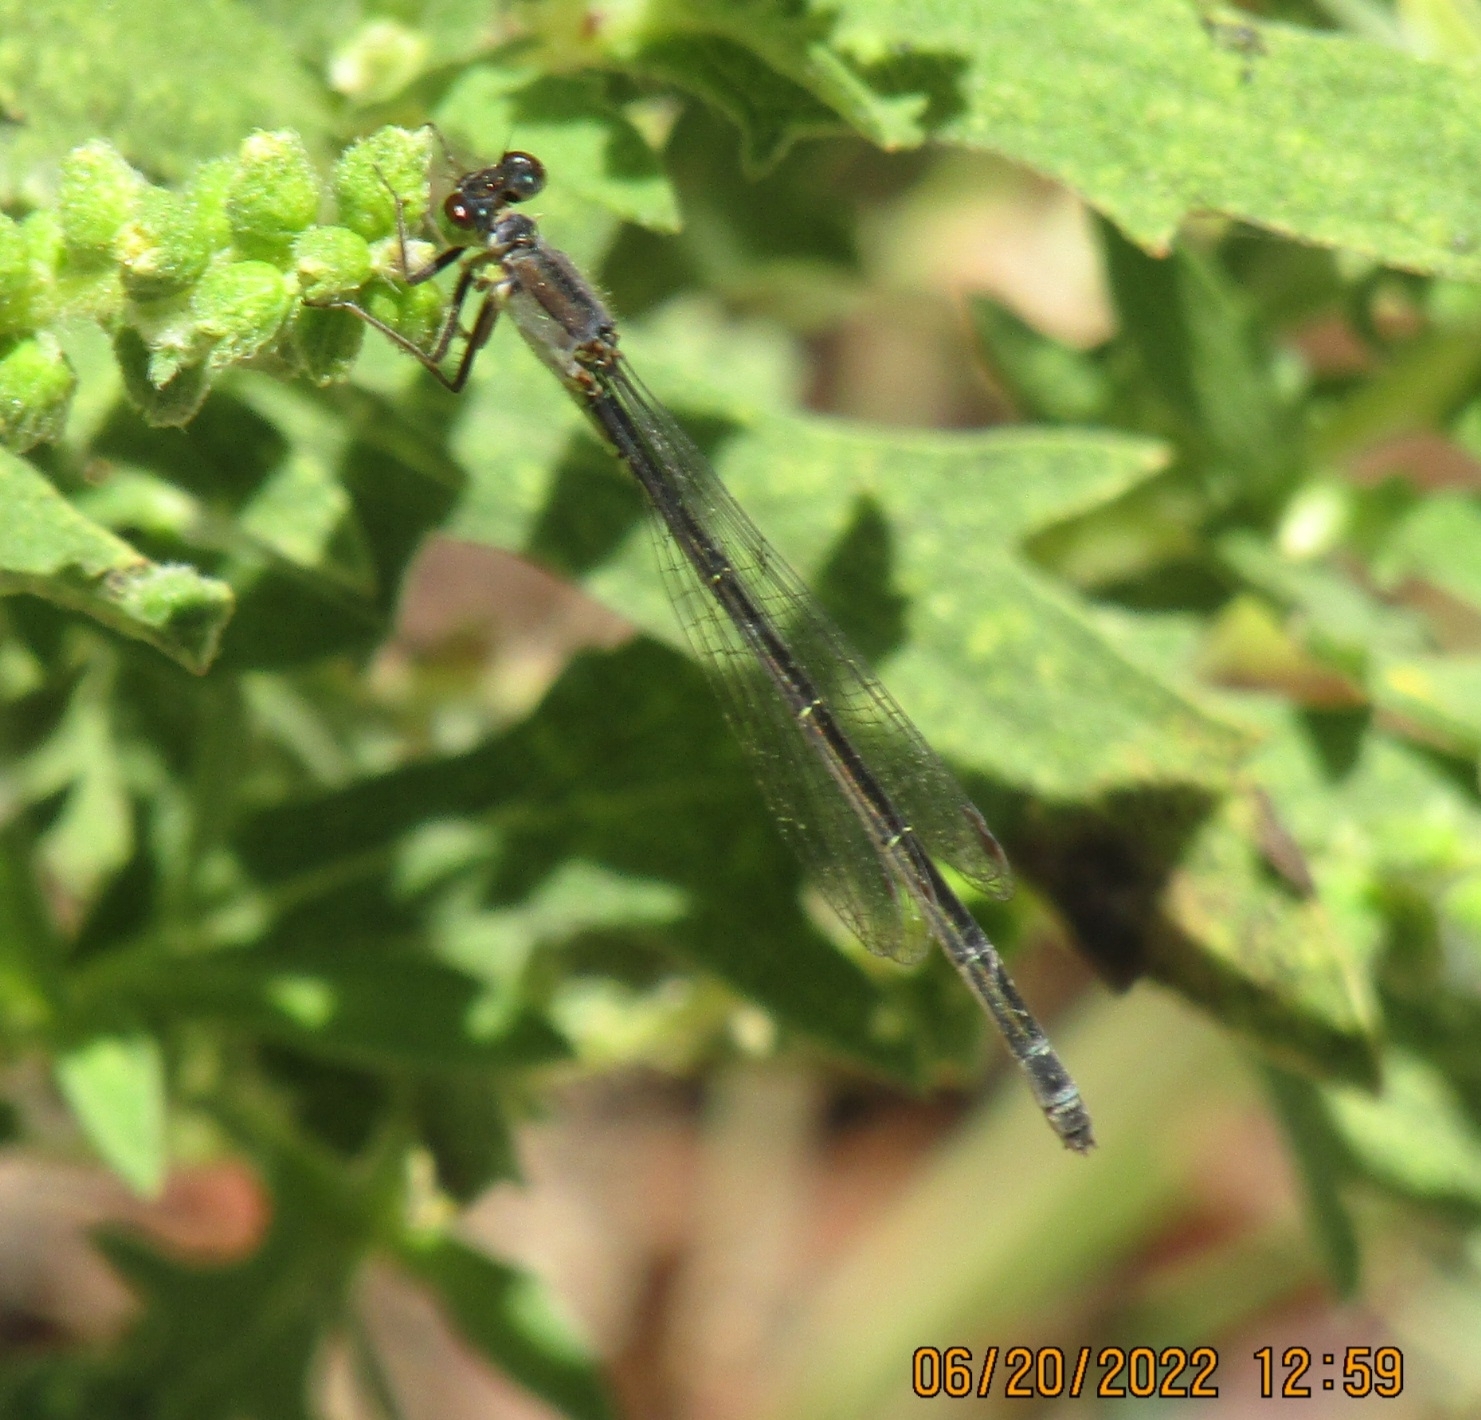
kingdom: Animalia
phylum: Arthropoda
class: Insecta
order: Odonata
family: Coenagrionidae
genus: Ischnura
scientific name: Ischnura cervula
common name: Pacific forktail
